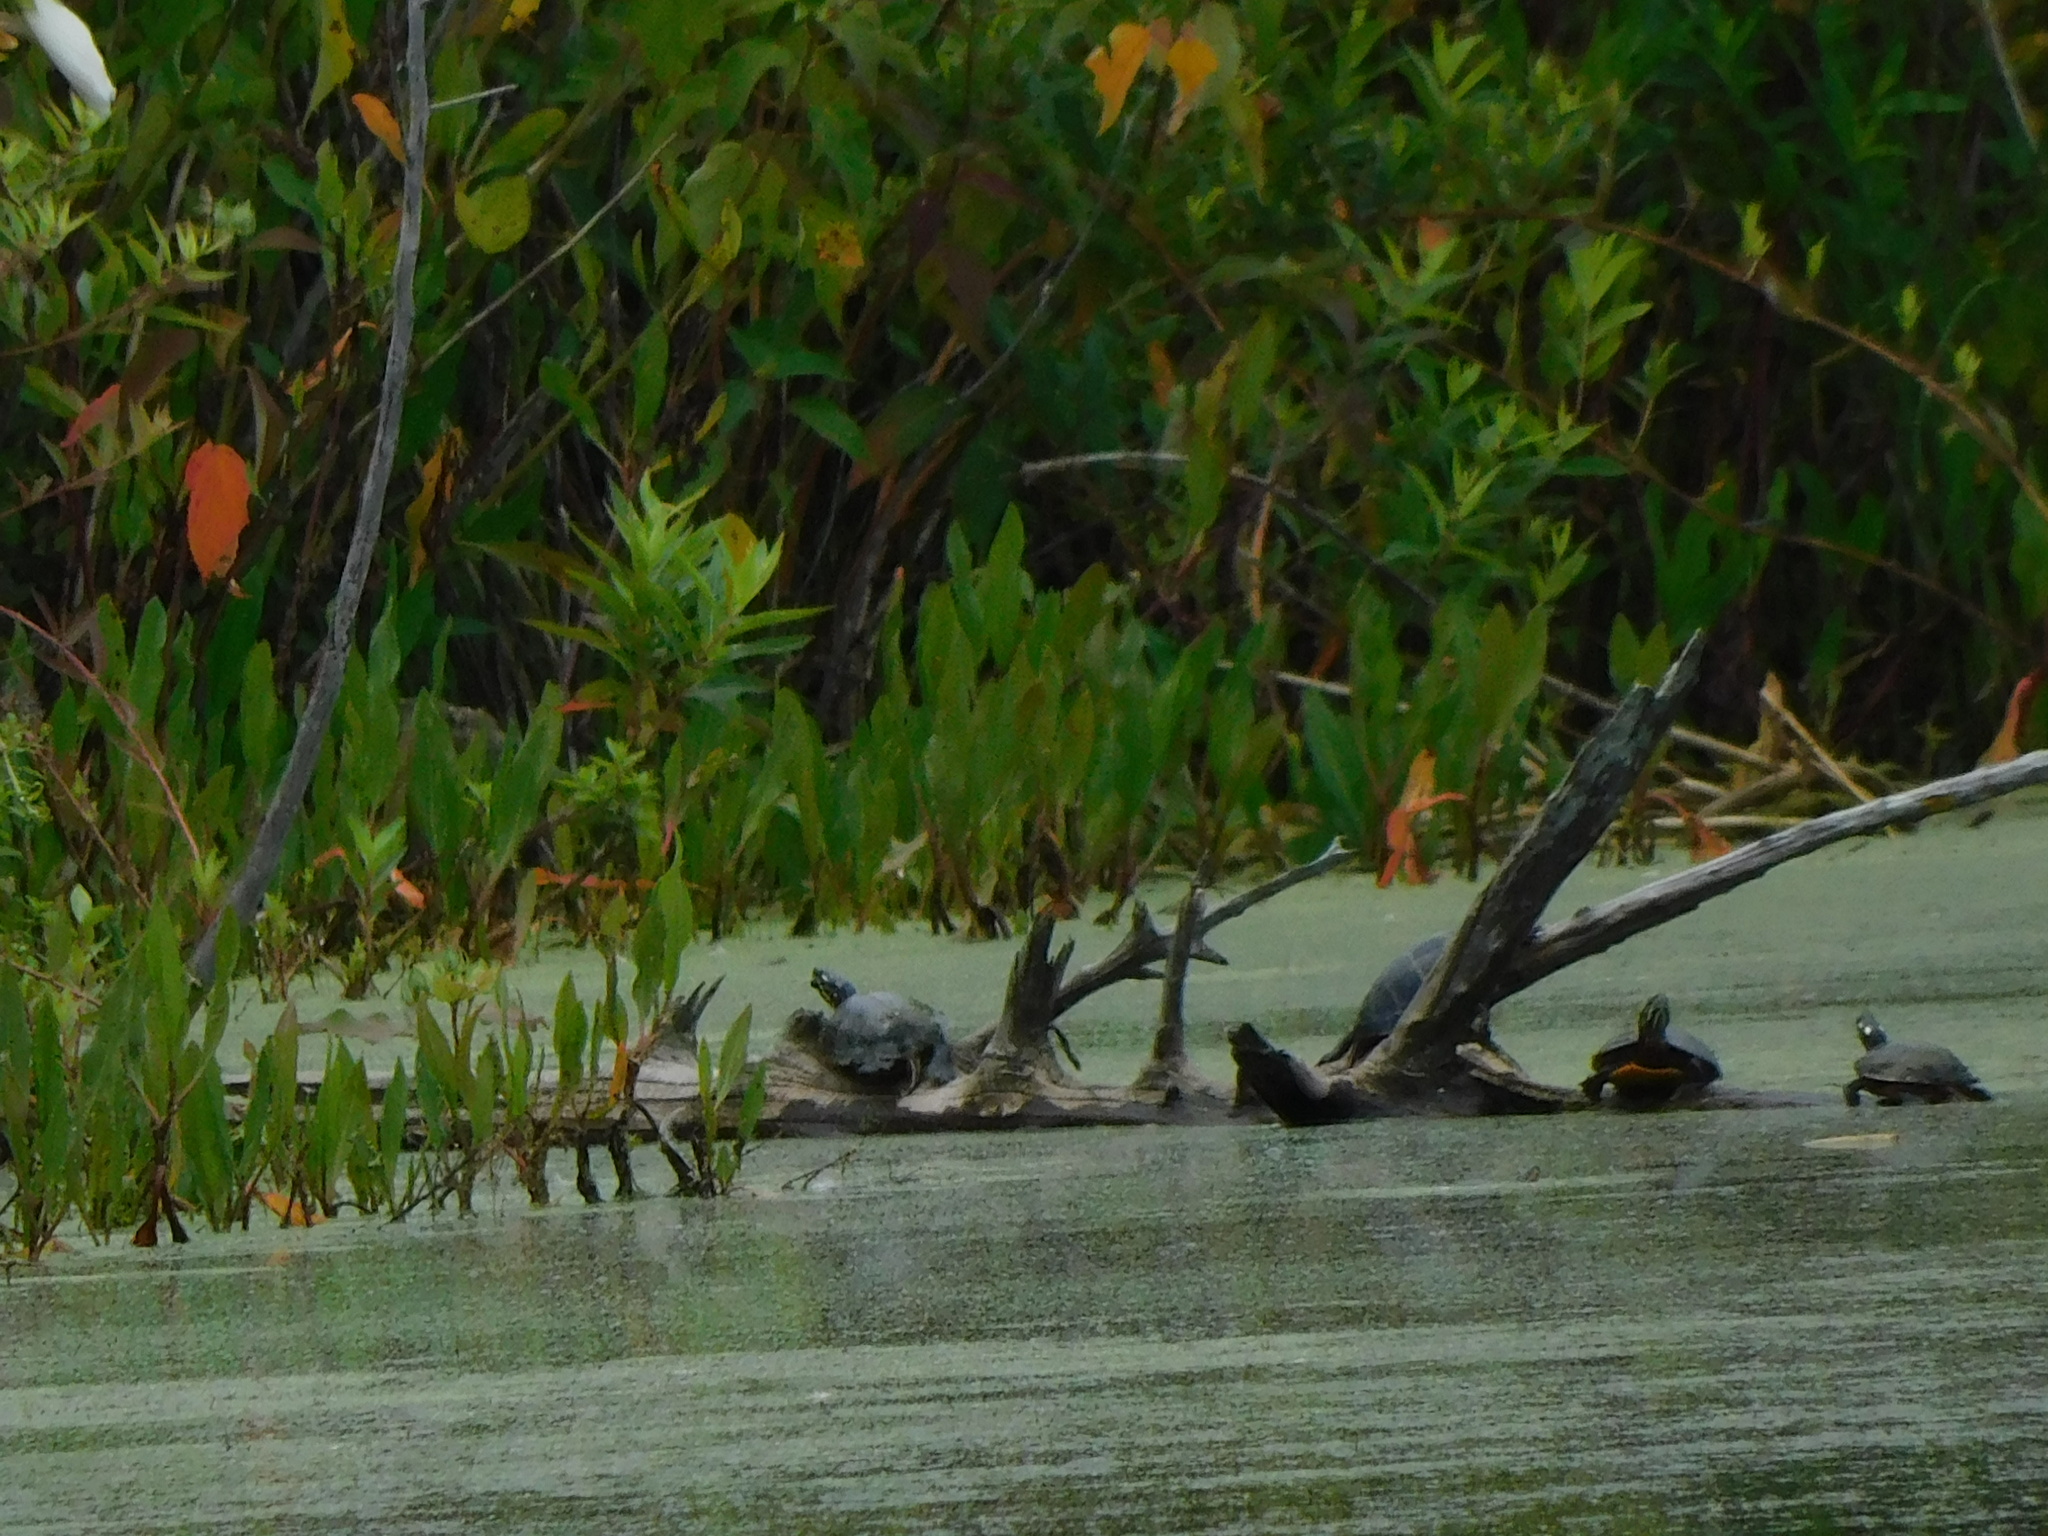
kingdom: Animalia
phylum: Chordata
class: Testudines
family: Emydidae
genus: Chrysemys
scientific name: Chrysemys picta
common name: Painted turtle
